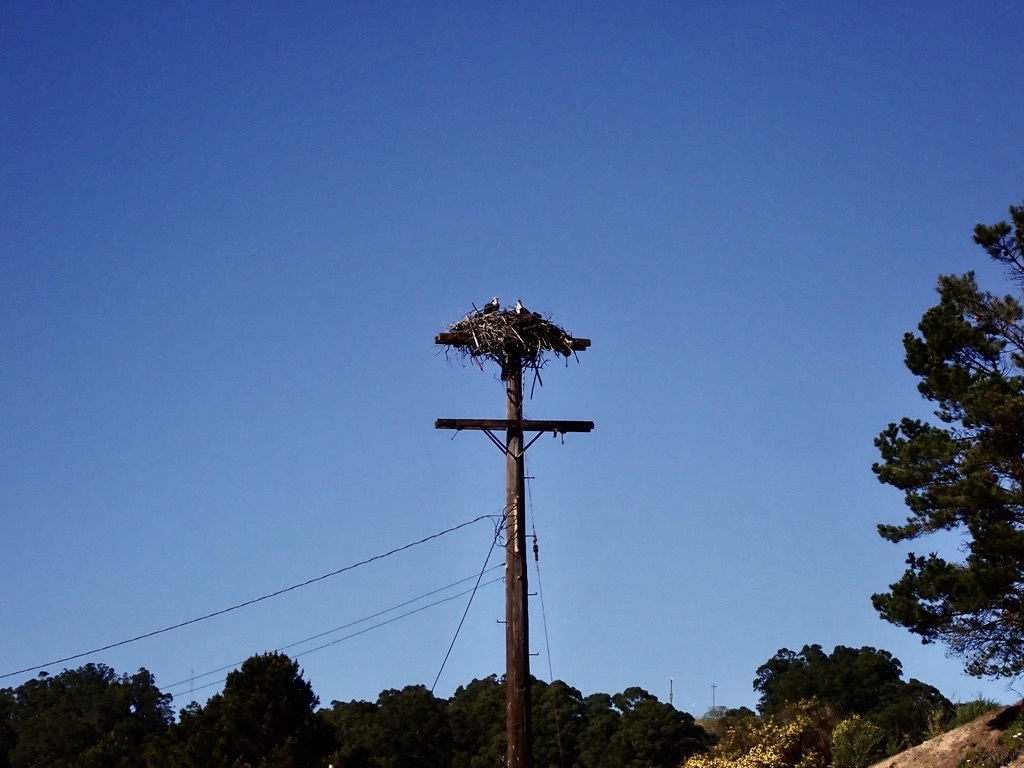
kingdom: Animalia
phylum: Chordata
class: Aves
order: Accipitriformes
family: Pandionidae
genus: Pandion
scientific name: Pandion haliaetus
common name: Osprey
